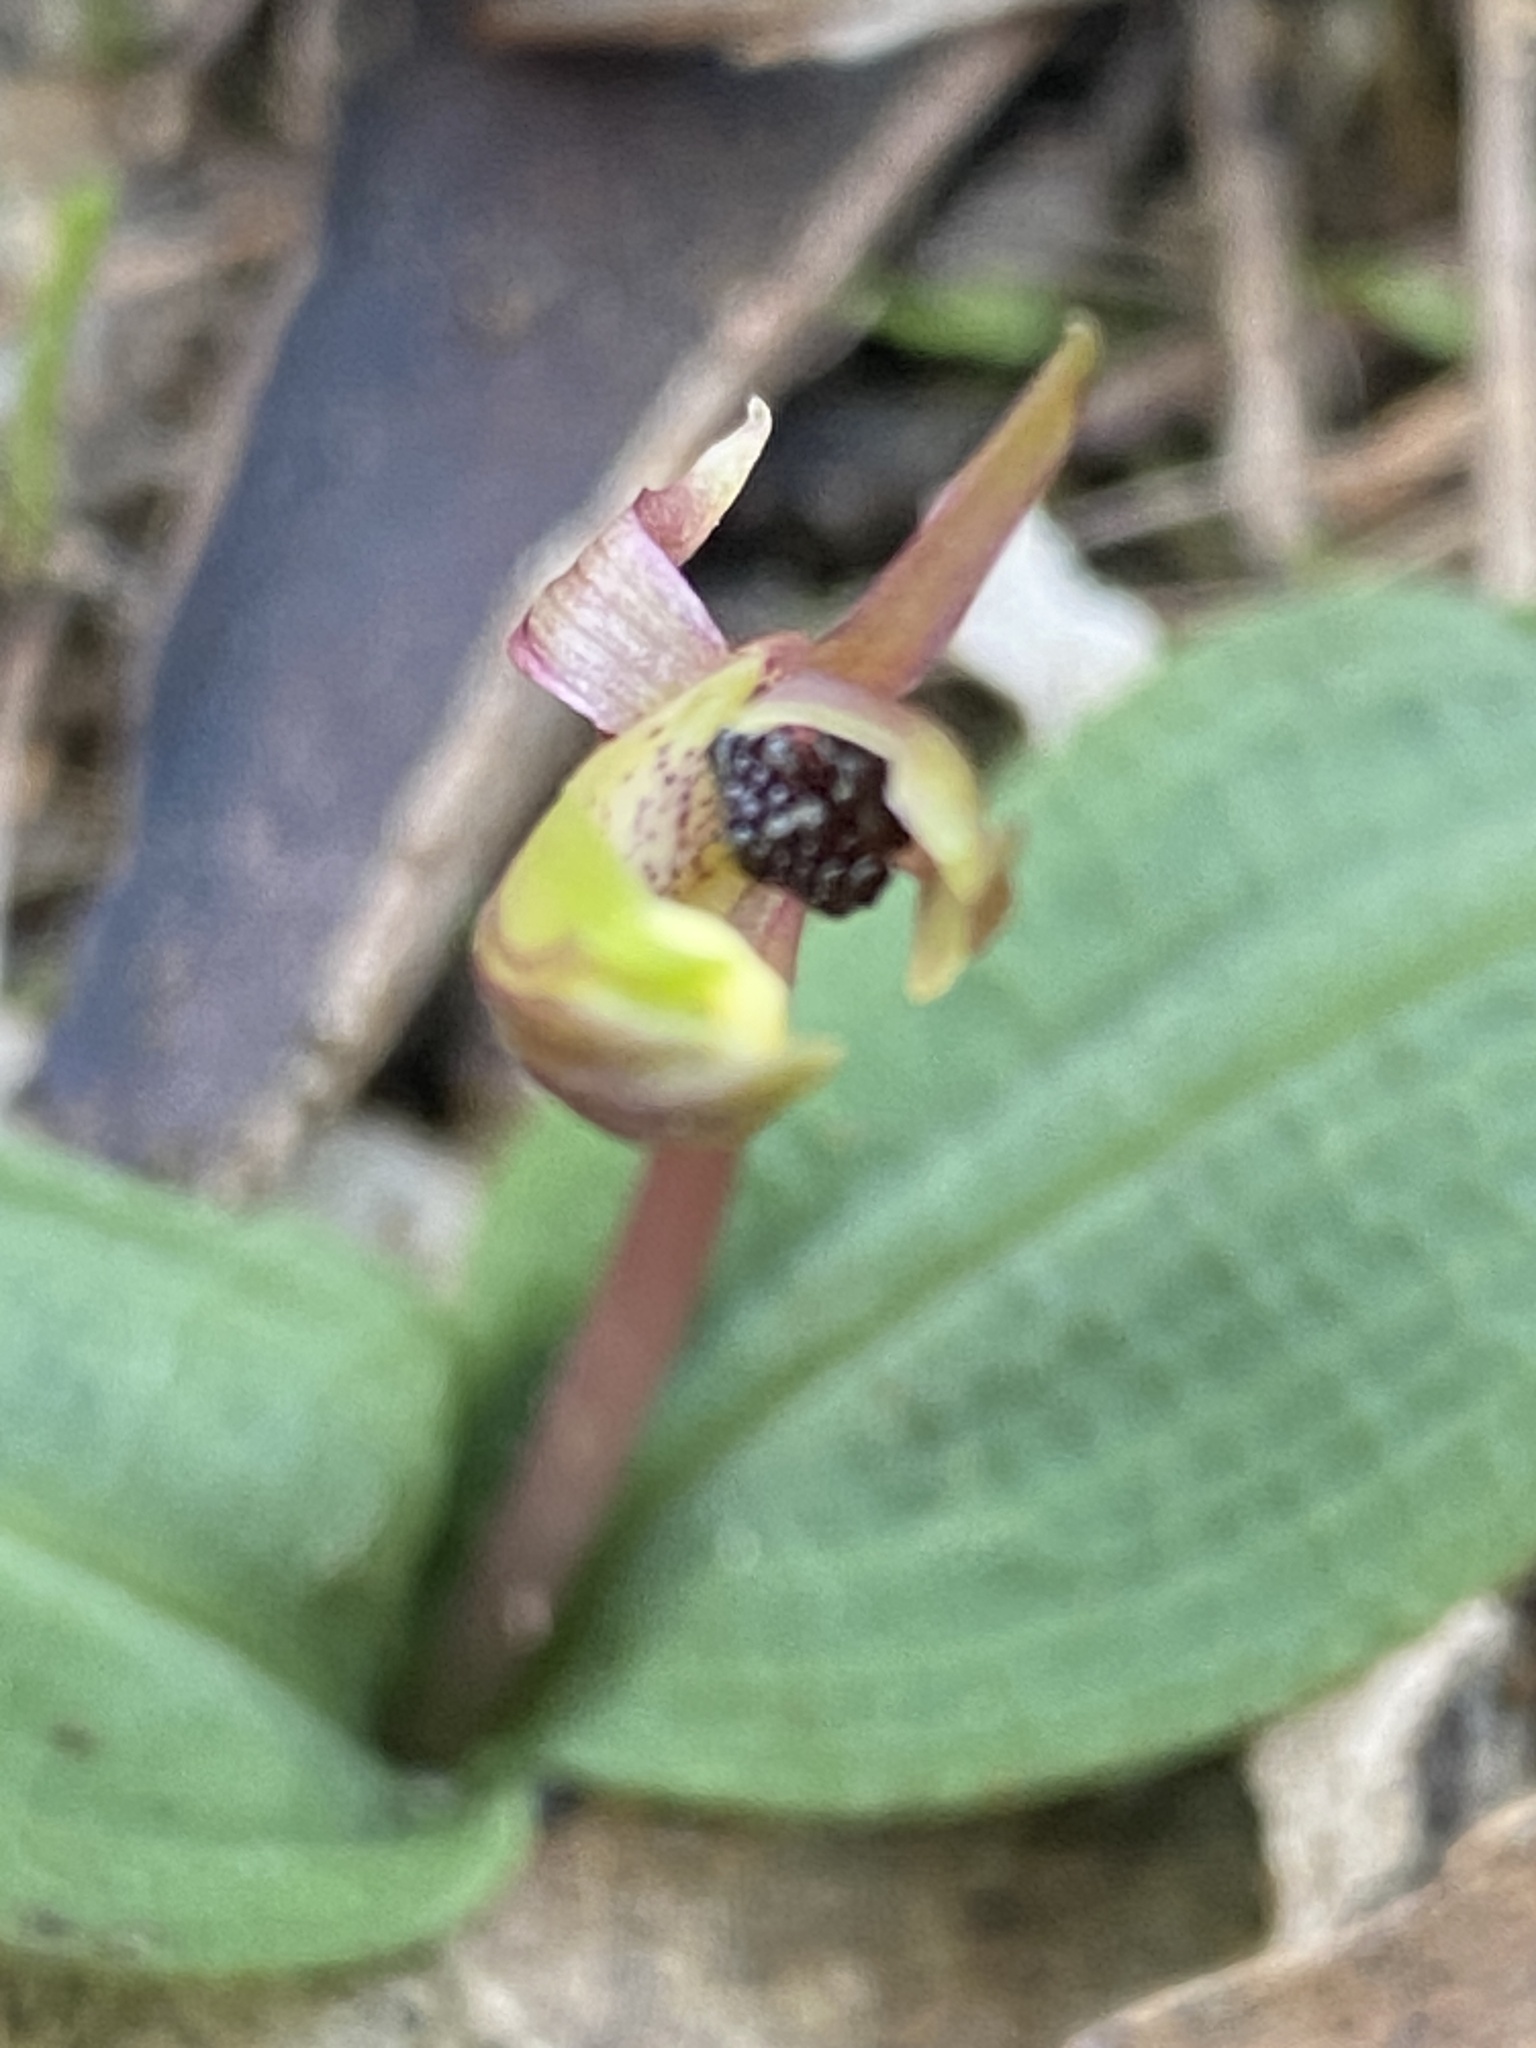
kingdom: Plantae
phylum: Tracheophyta
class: Liliopsida
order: Asparagales
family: Orchidaceae
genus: Chiloglottis
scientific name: Chiloglottis trapeziformis
